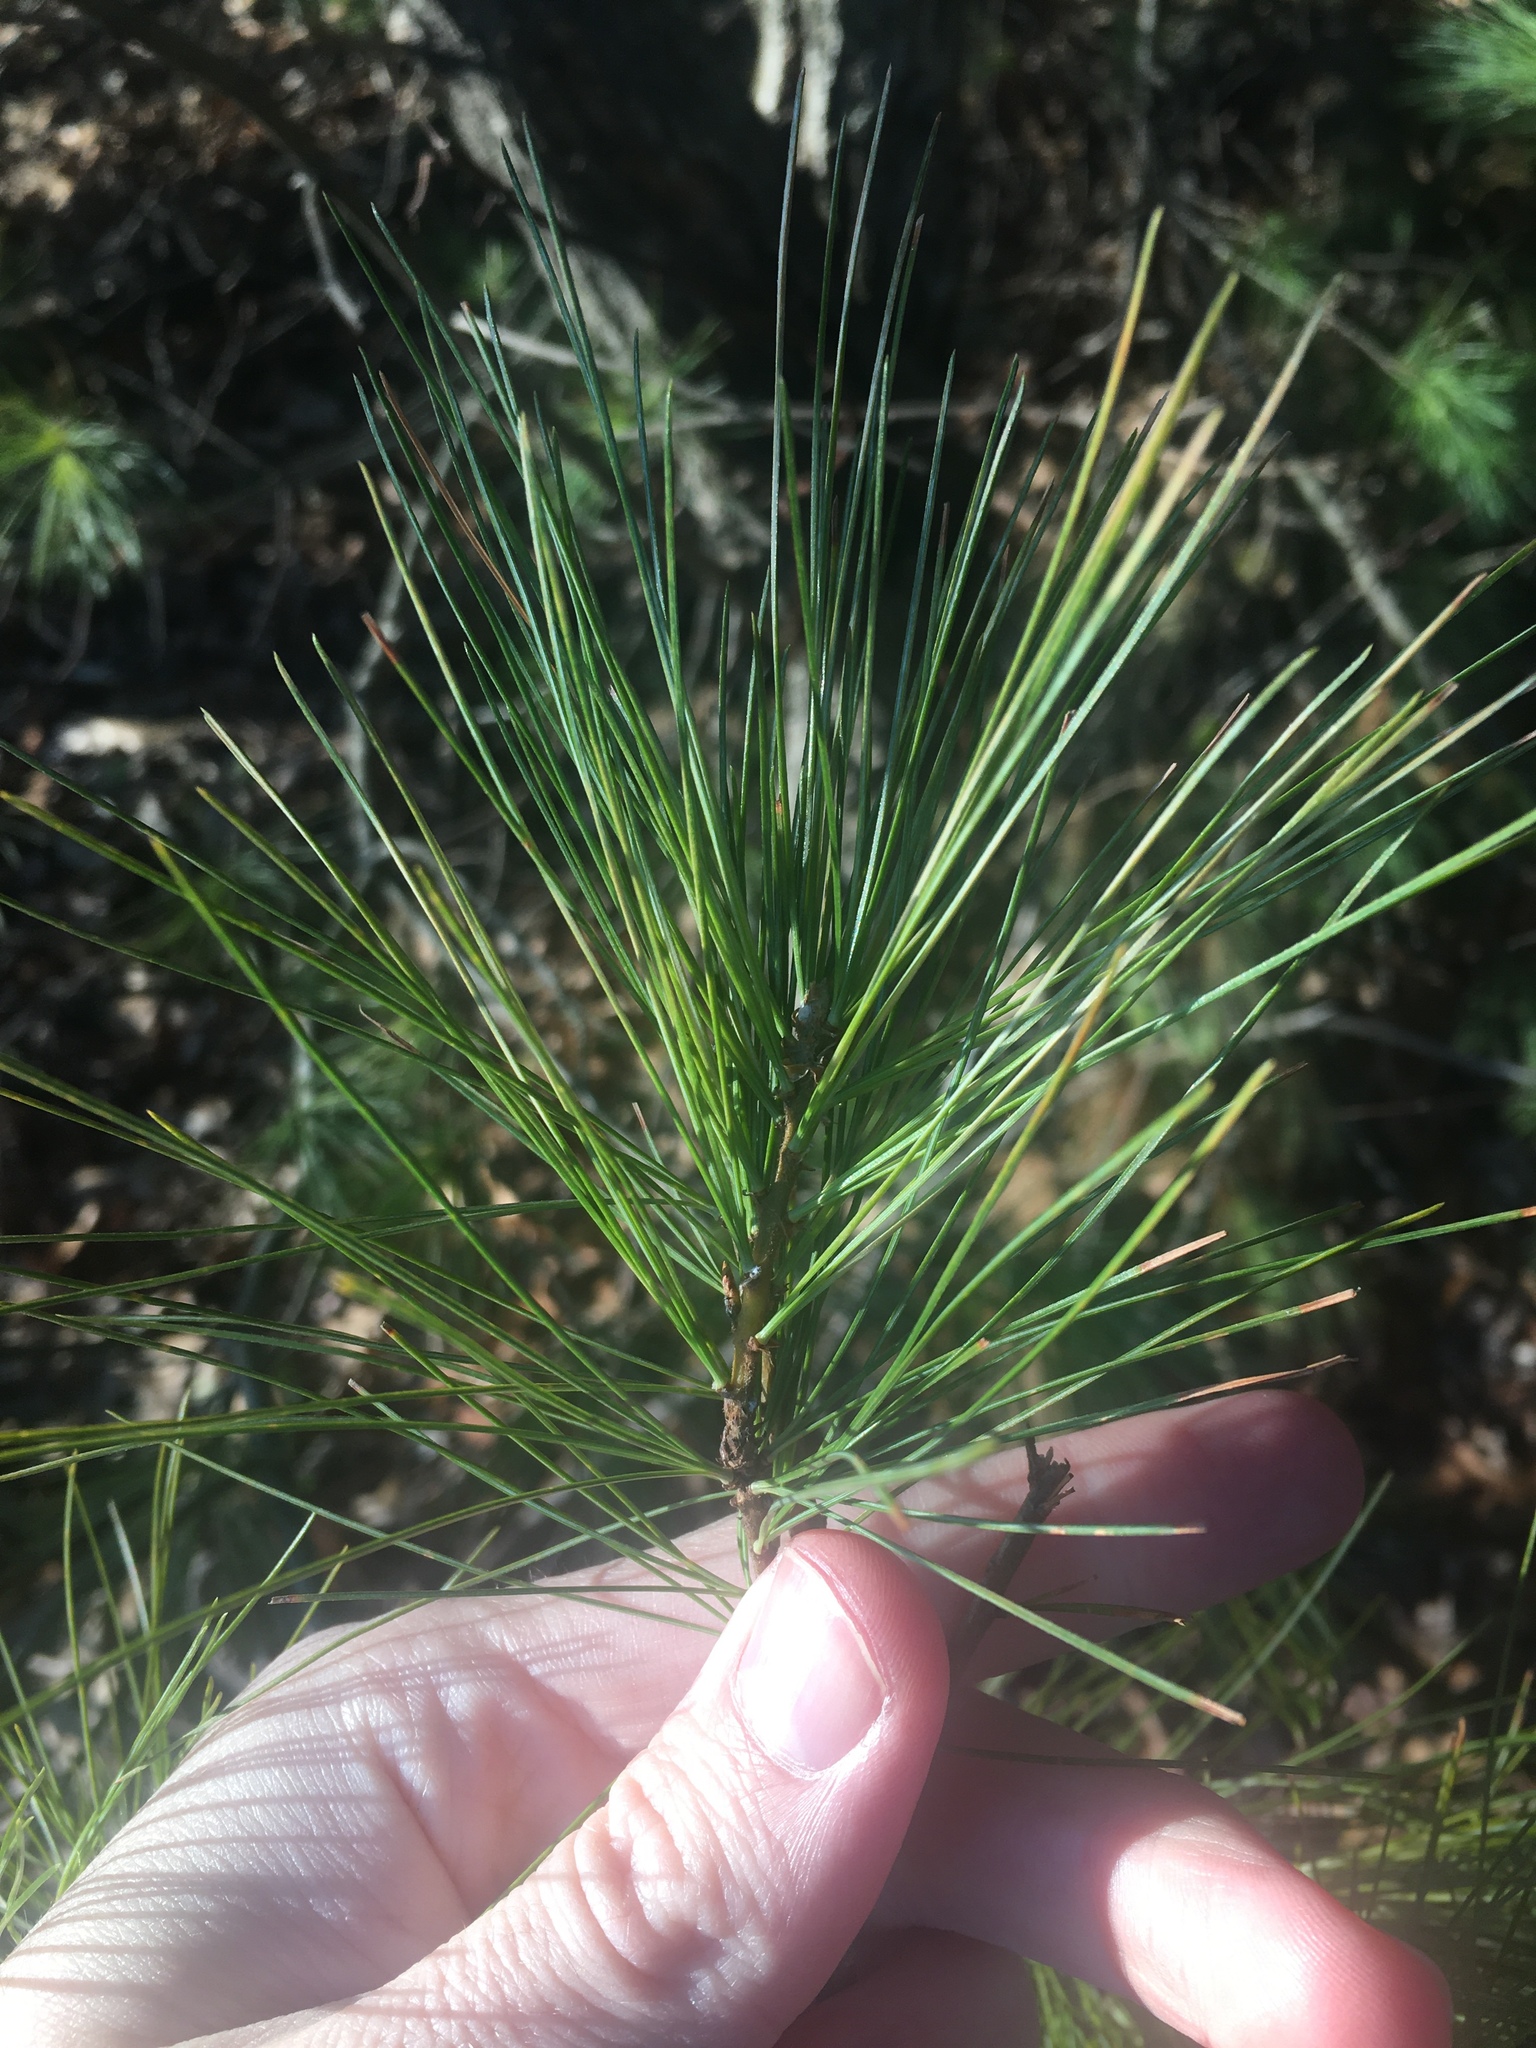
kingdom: Plantae
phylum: Tracheophyta
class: Pinopsida
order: Pinales
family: Pinaceae
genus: Pinus
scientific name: Pinus strobus
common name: Weymouth pine
